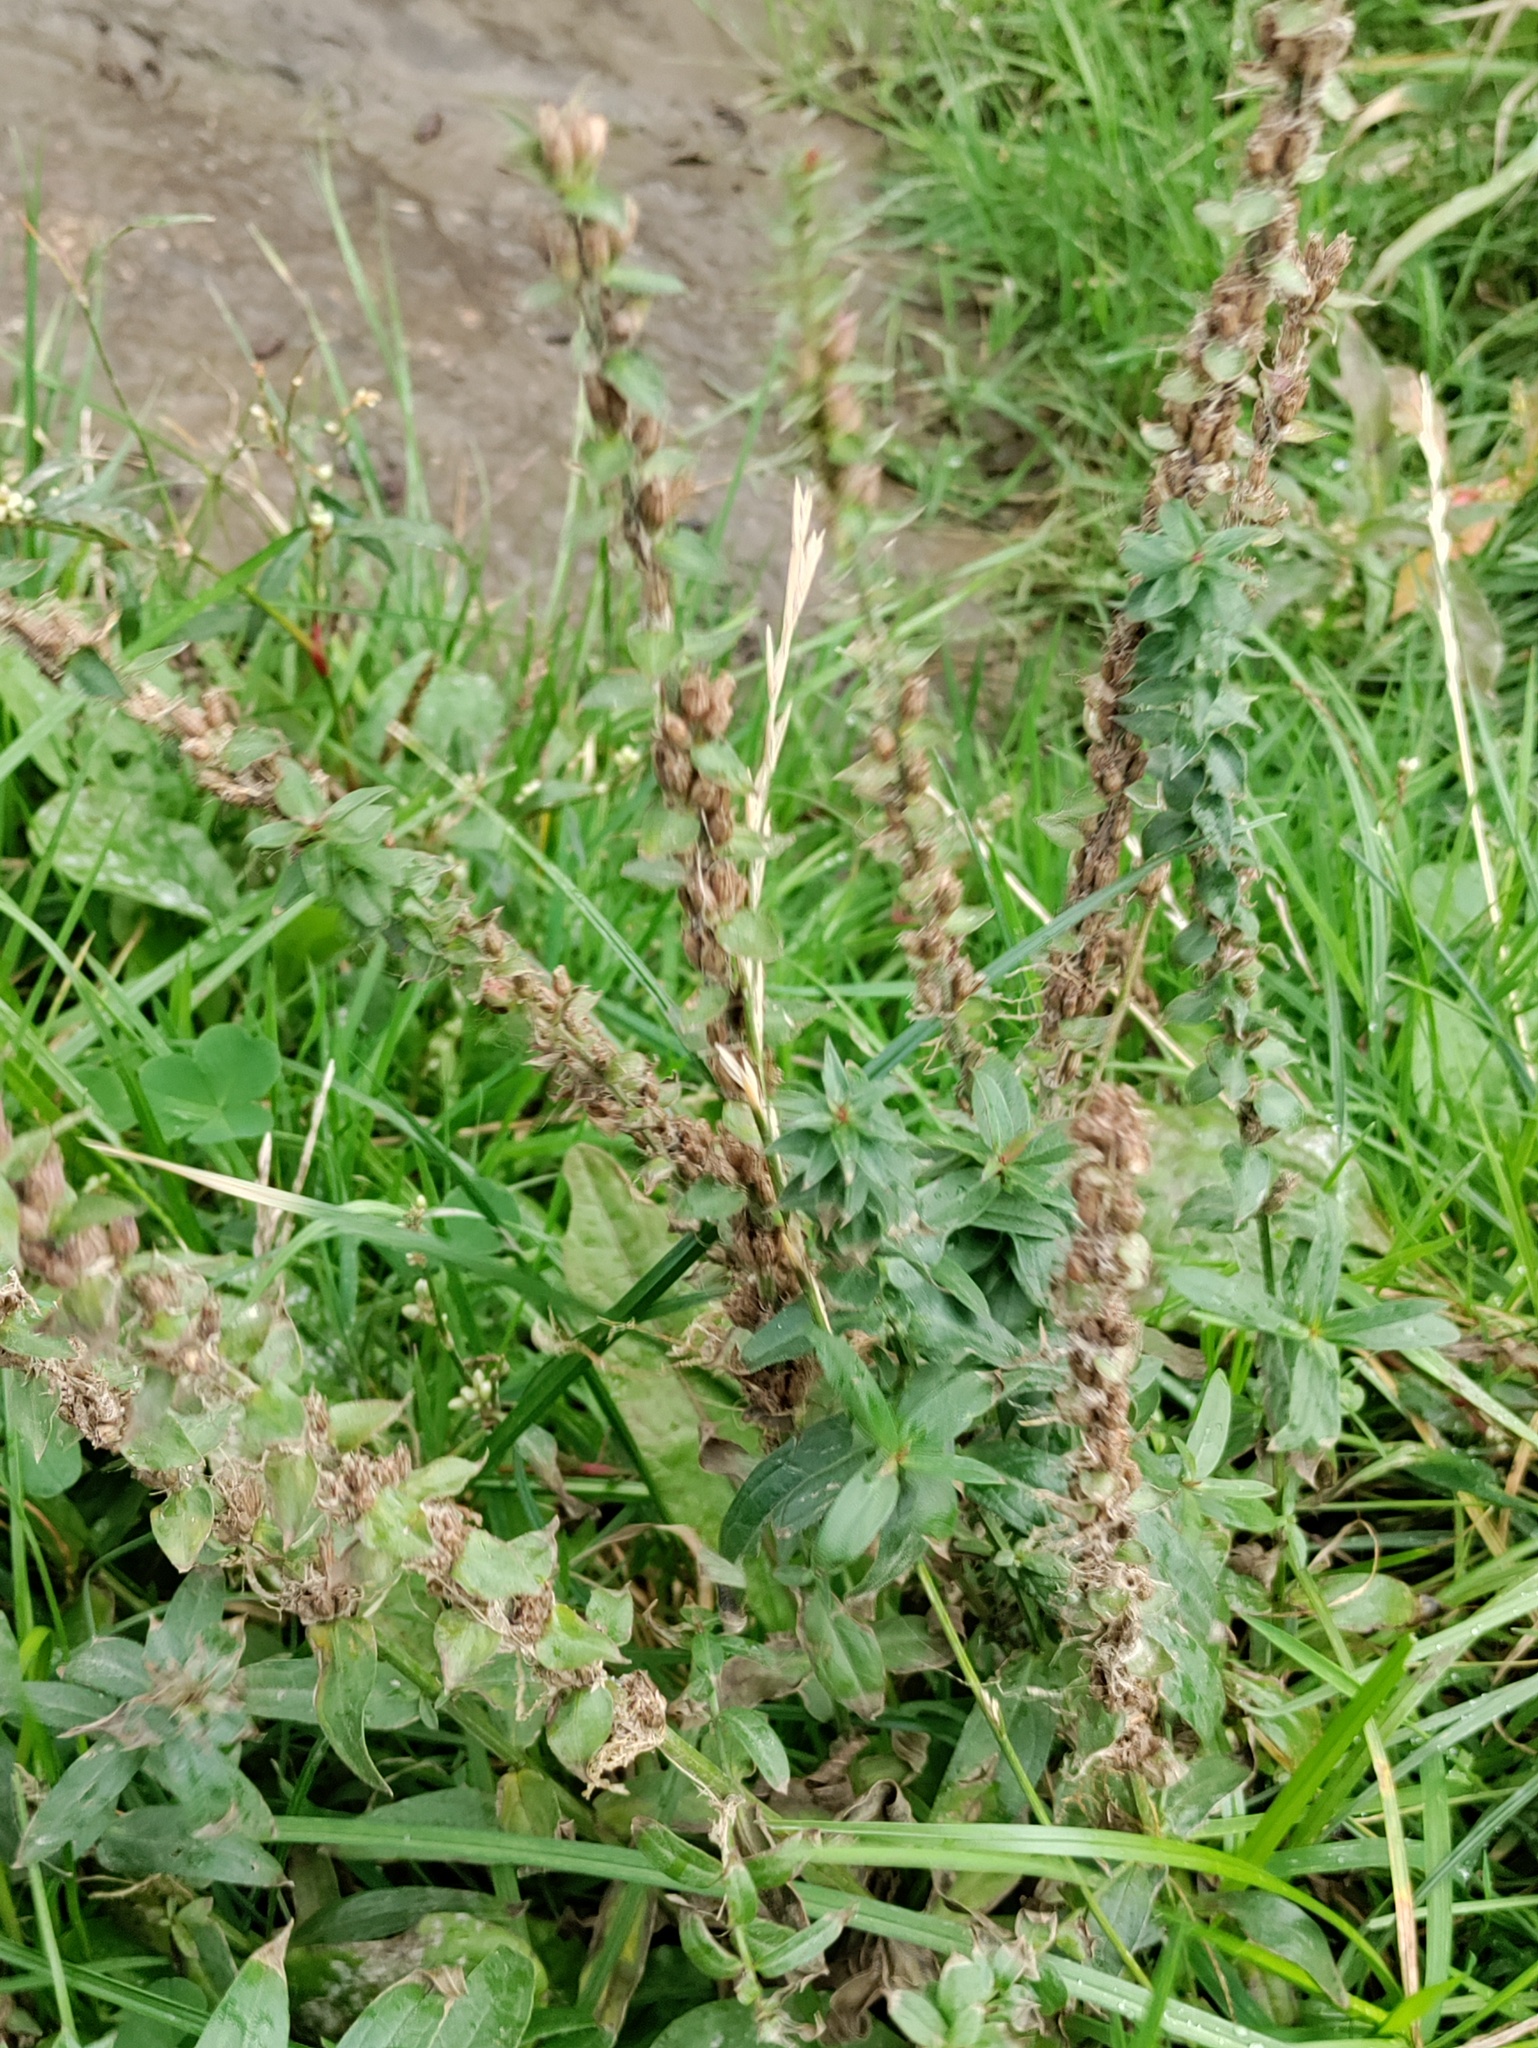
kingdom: Plantae
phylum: Tracheophyta
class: Magnoliopsida
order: Myrtales
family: Lythraceae
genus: Lythrum
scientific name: Lythrum salicaria
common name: Purple loosestrife
